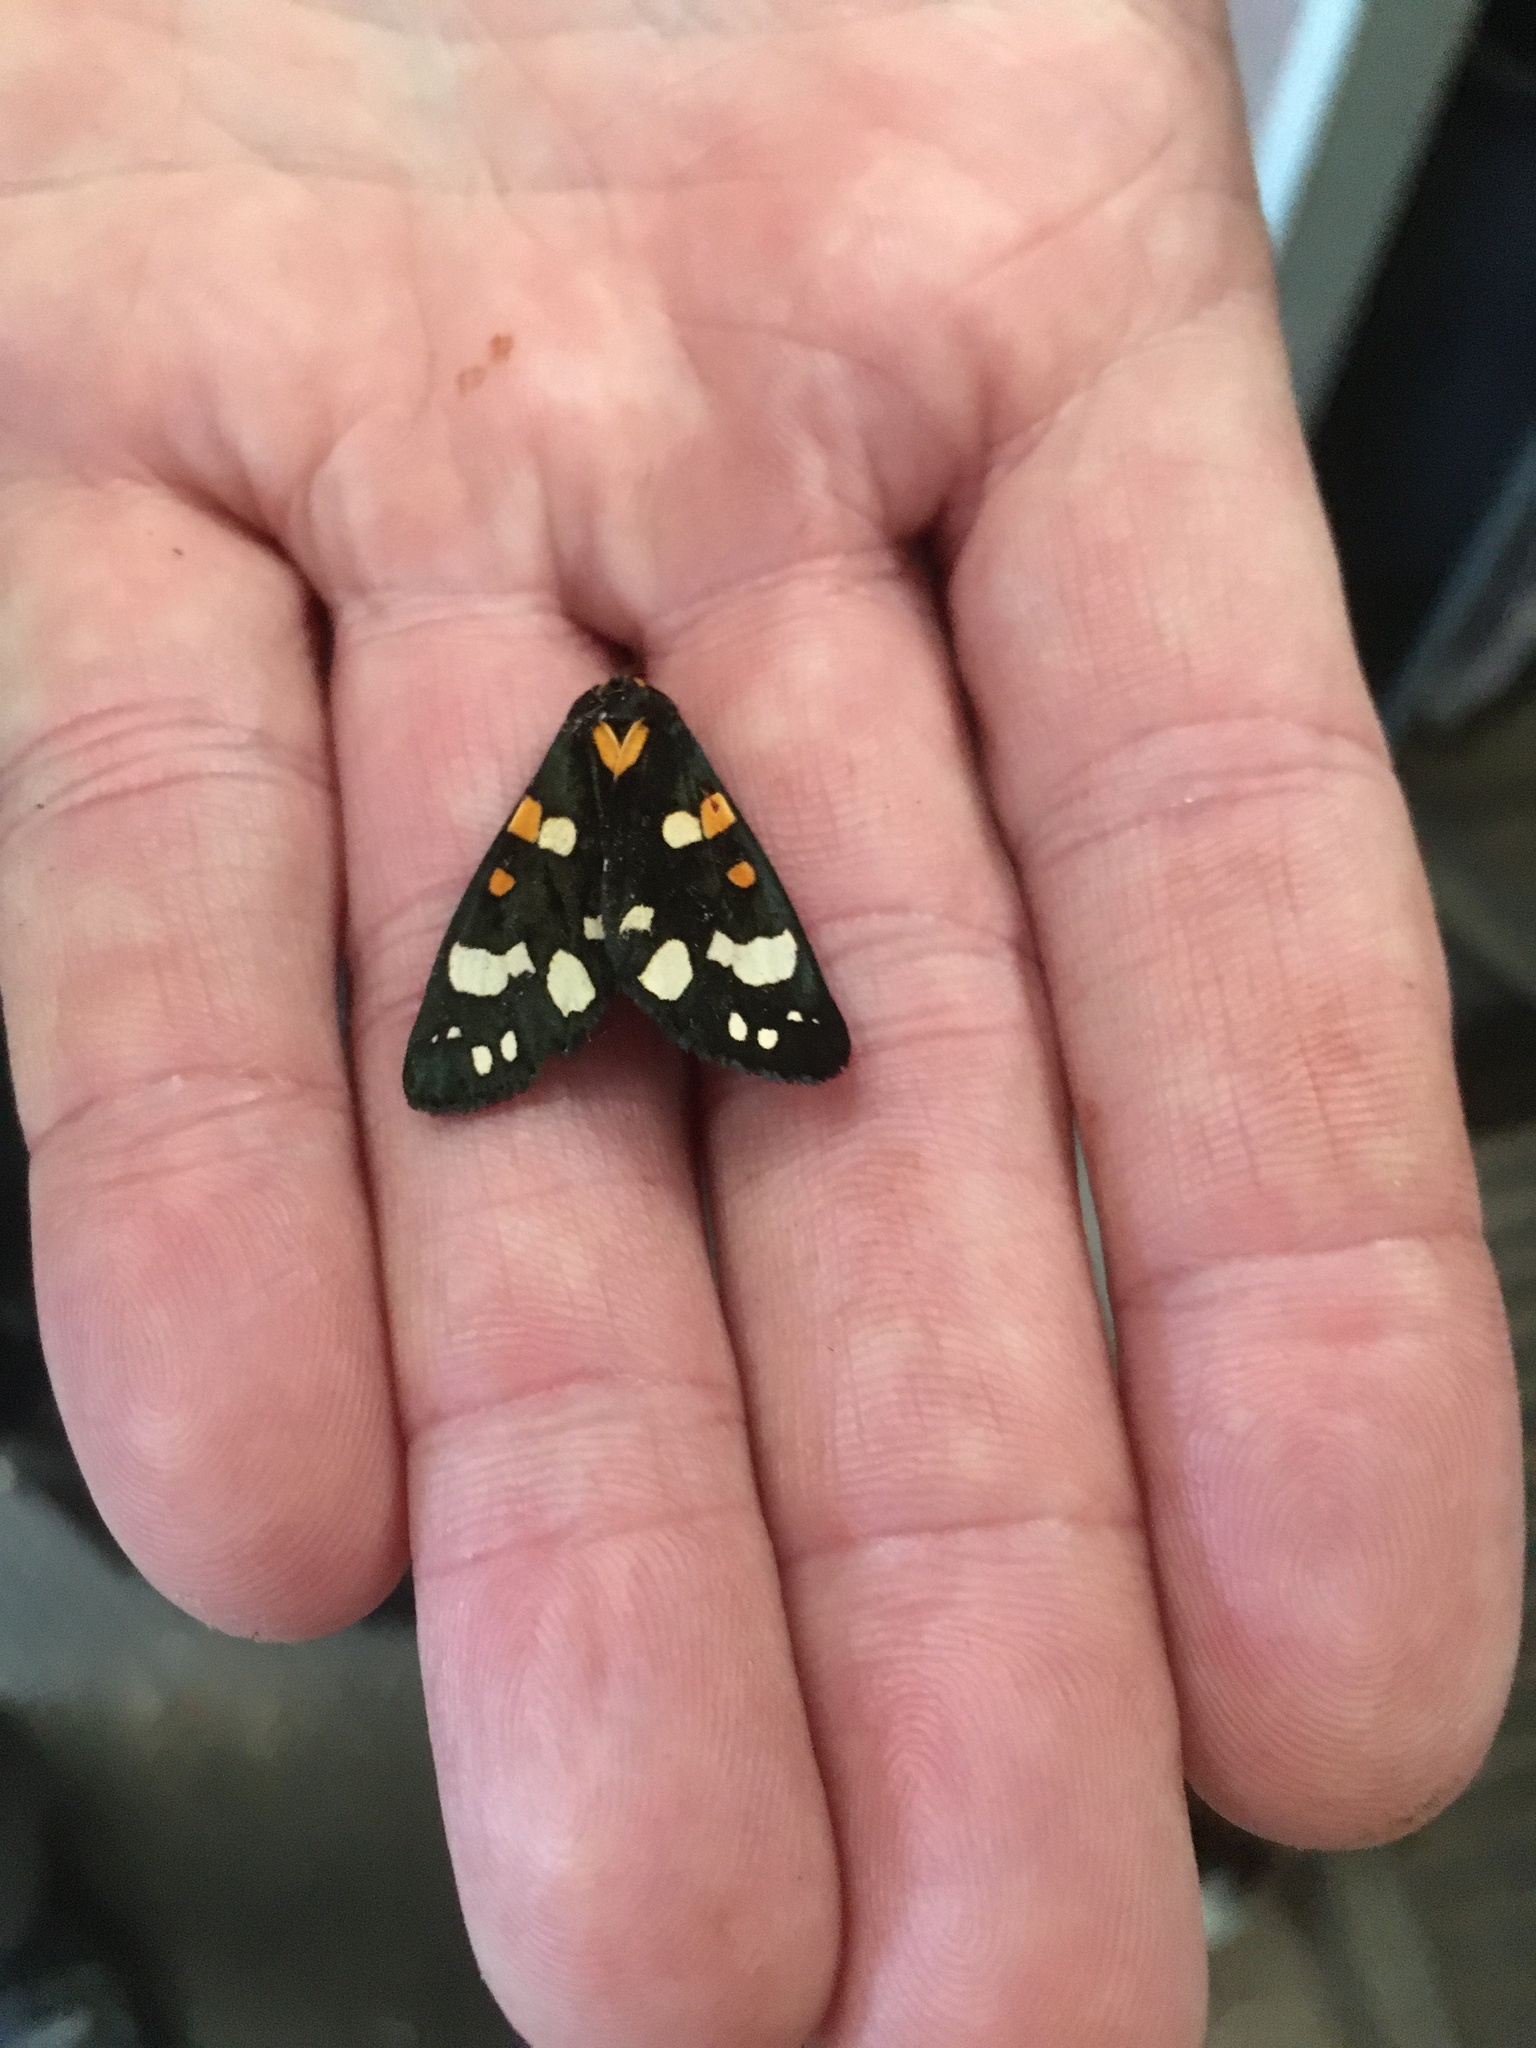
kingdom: Animalia
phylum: Arthropoda
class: Insecta
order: Lepidoptera
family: Erebidae
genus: Callimorpha
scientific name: Callimorpha dominula
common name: Scarlet tiger
